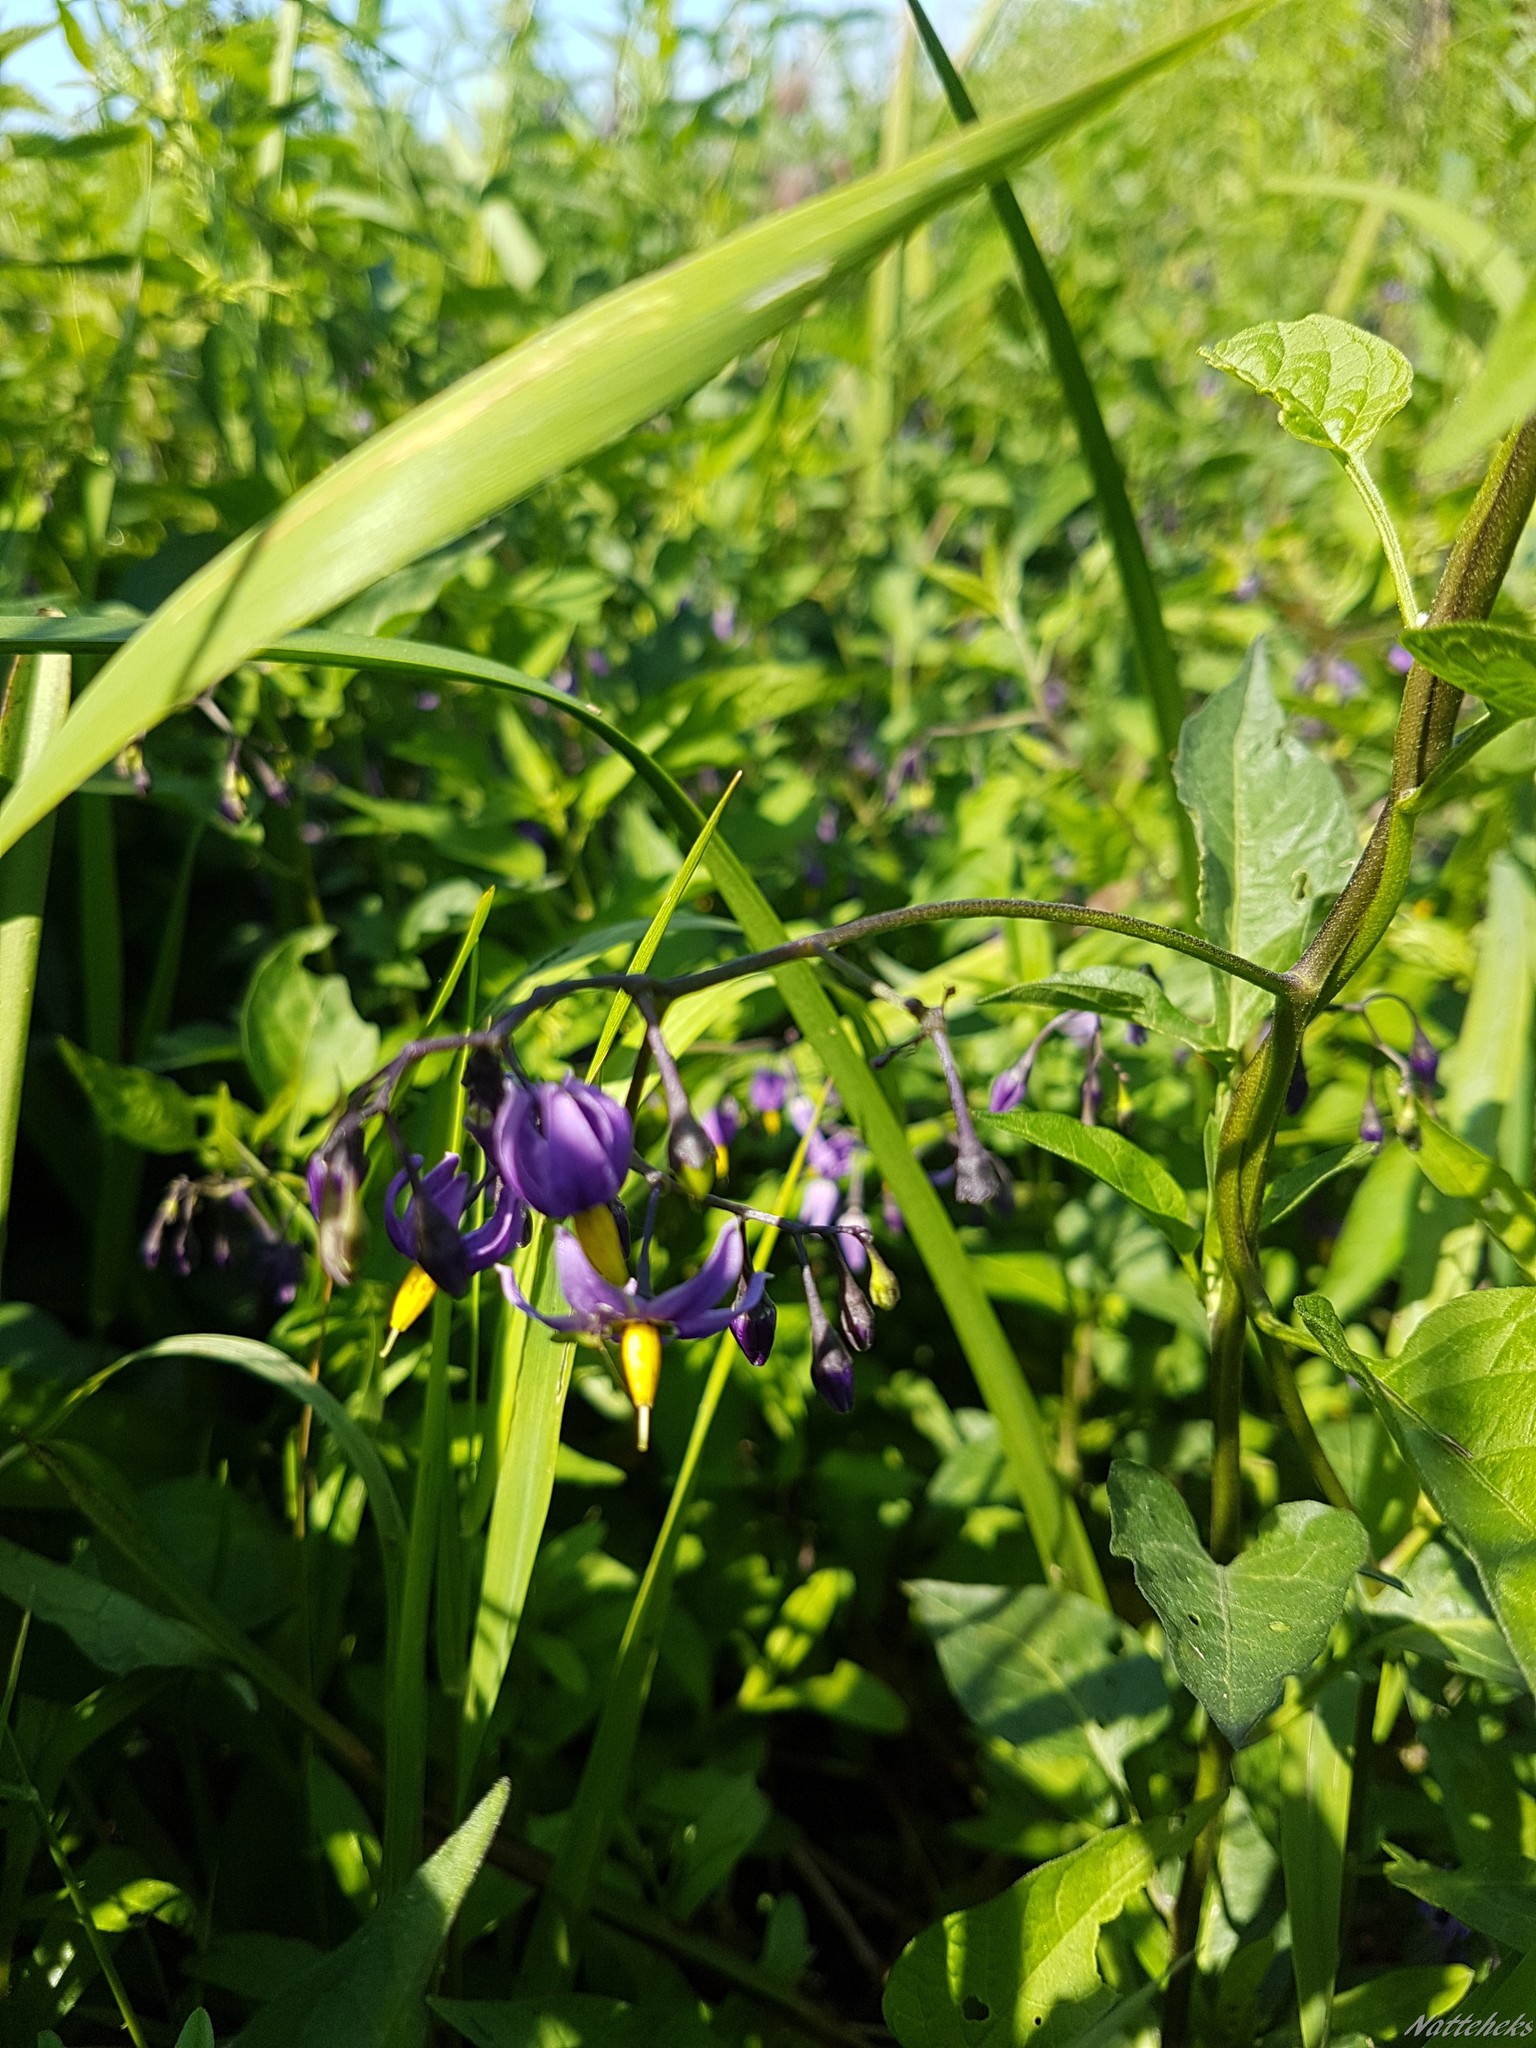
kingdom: Plantae
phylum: Tracheophyta
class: Magnoliopsida
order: Solanales
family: Solanaceae
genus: Solanum
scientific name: Solanum dulcamara
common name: Climbing nightshade
